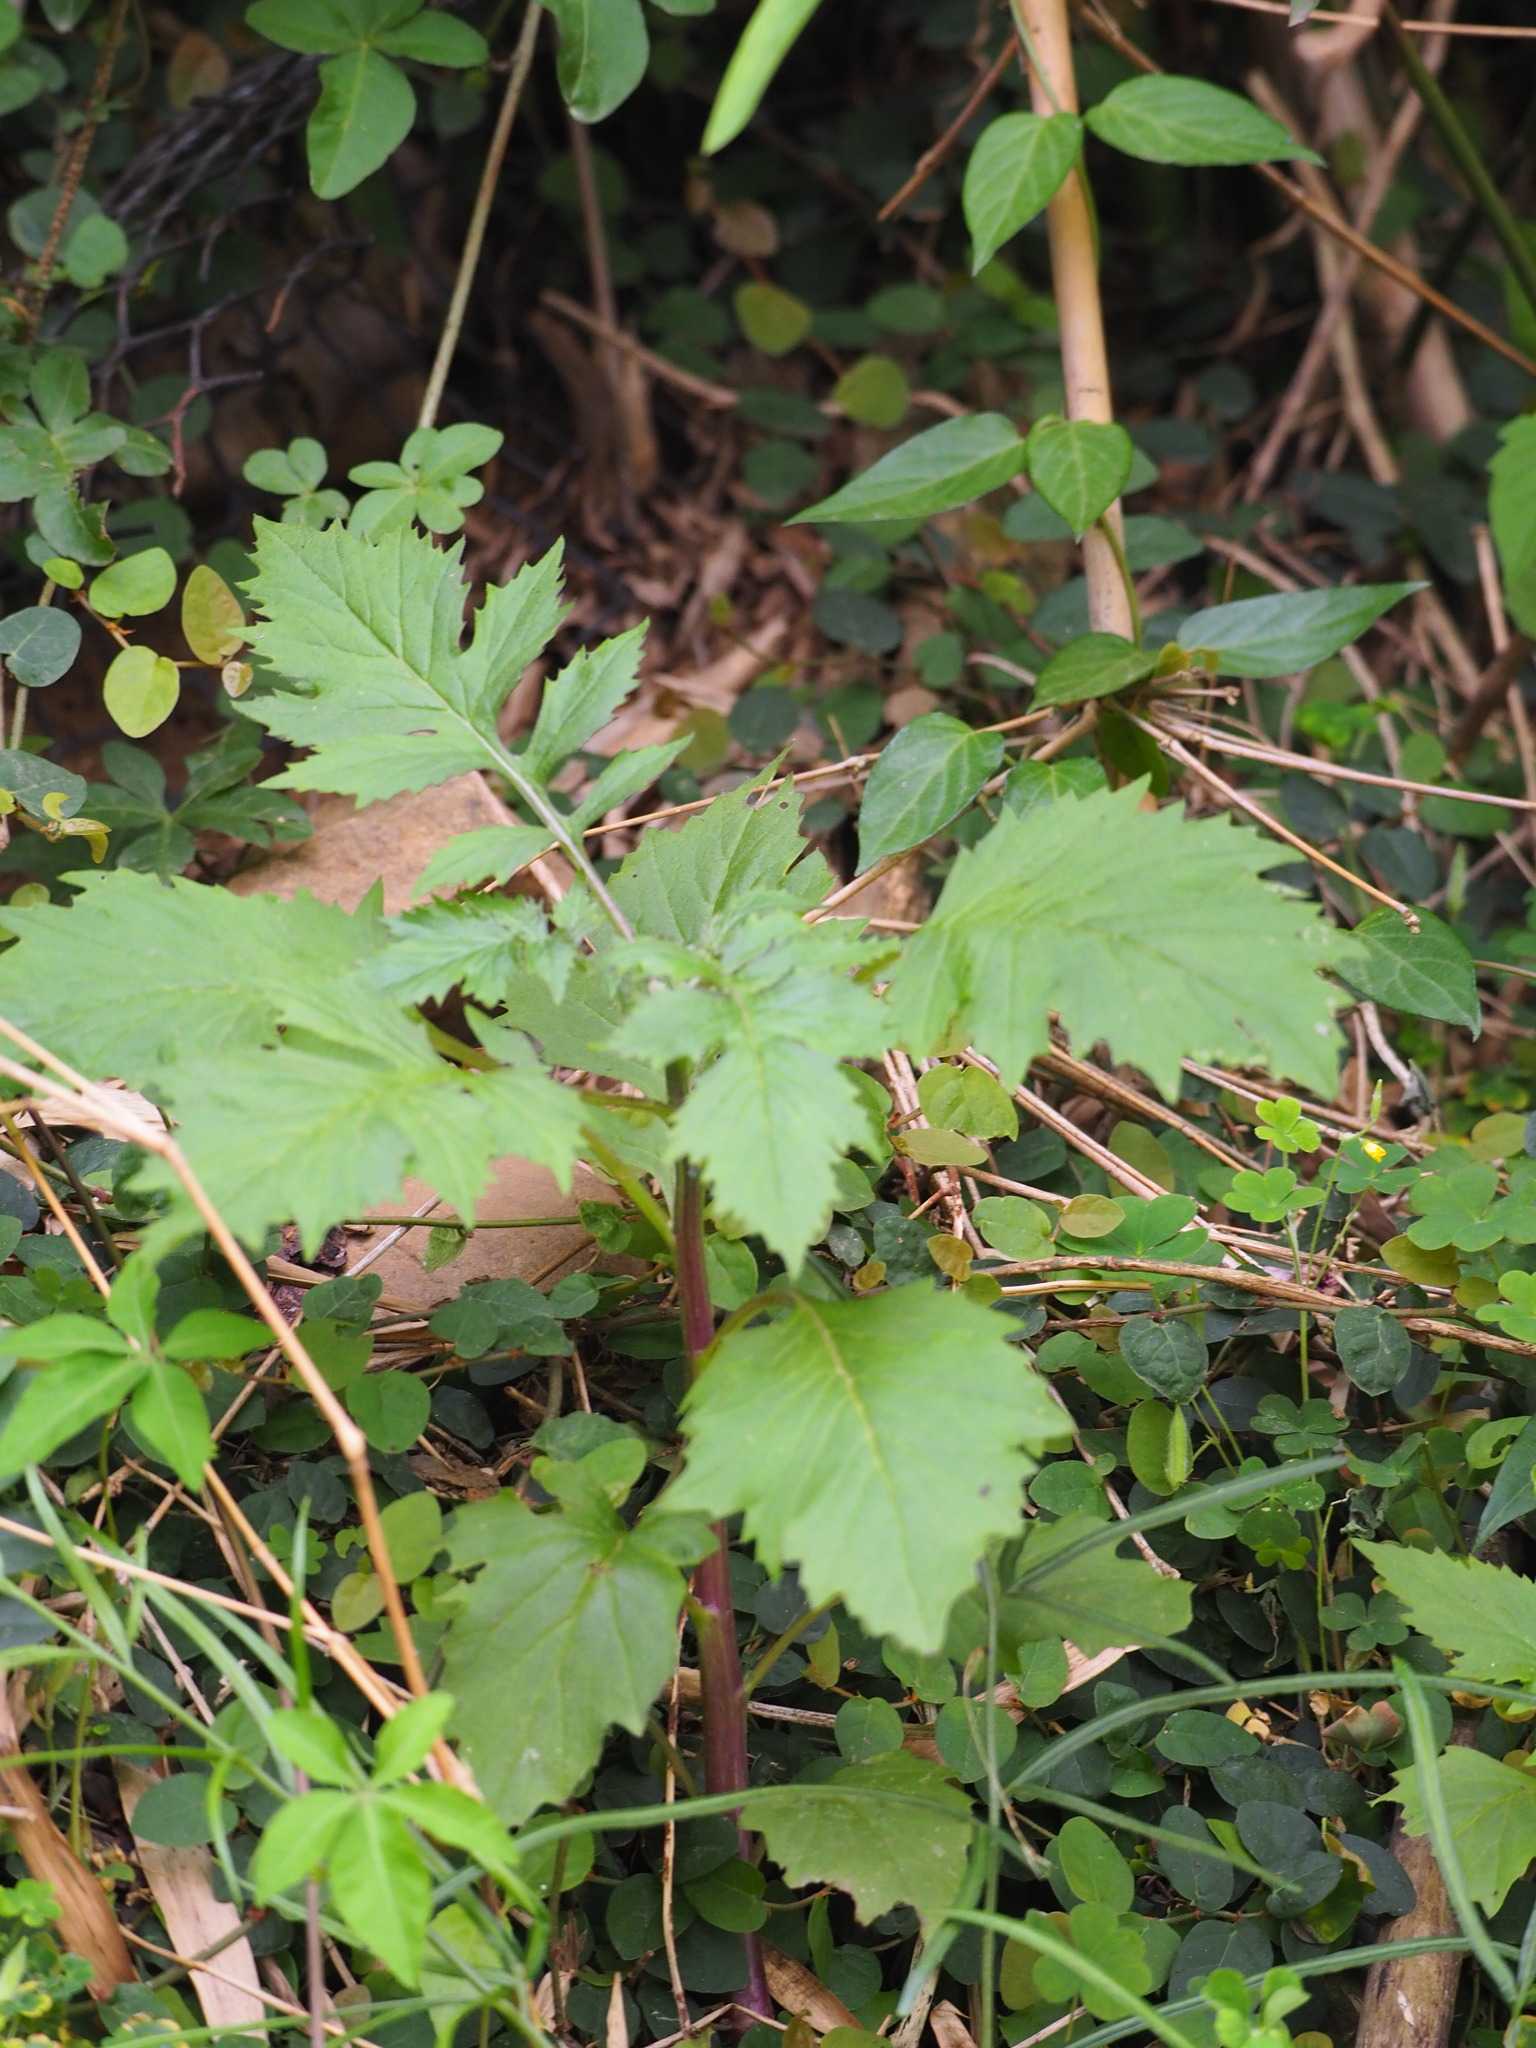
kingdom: Plantae
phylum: Tracheophyta
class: Magnoliopsida
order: Asterales
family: Asteraceae
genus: Erechtites
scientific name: Erechtites valerianifolius
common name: Tropical burnweed
